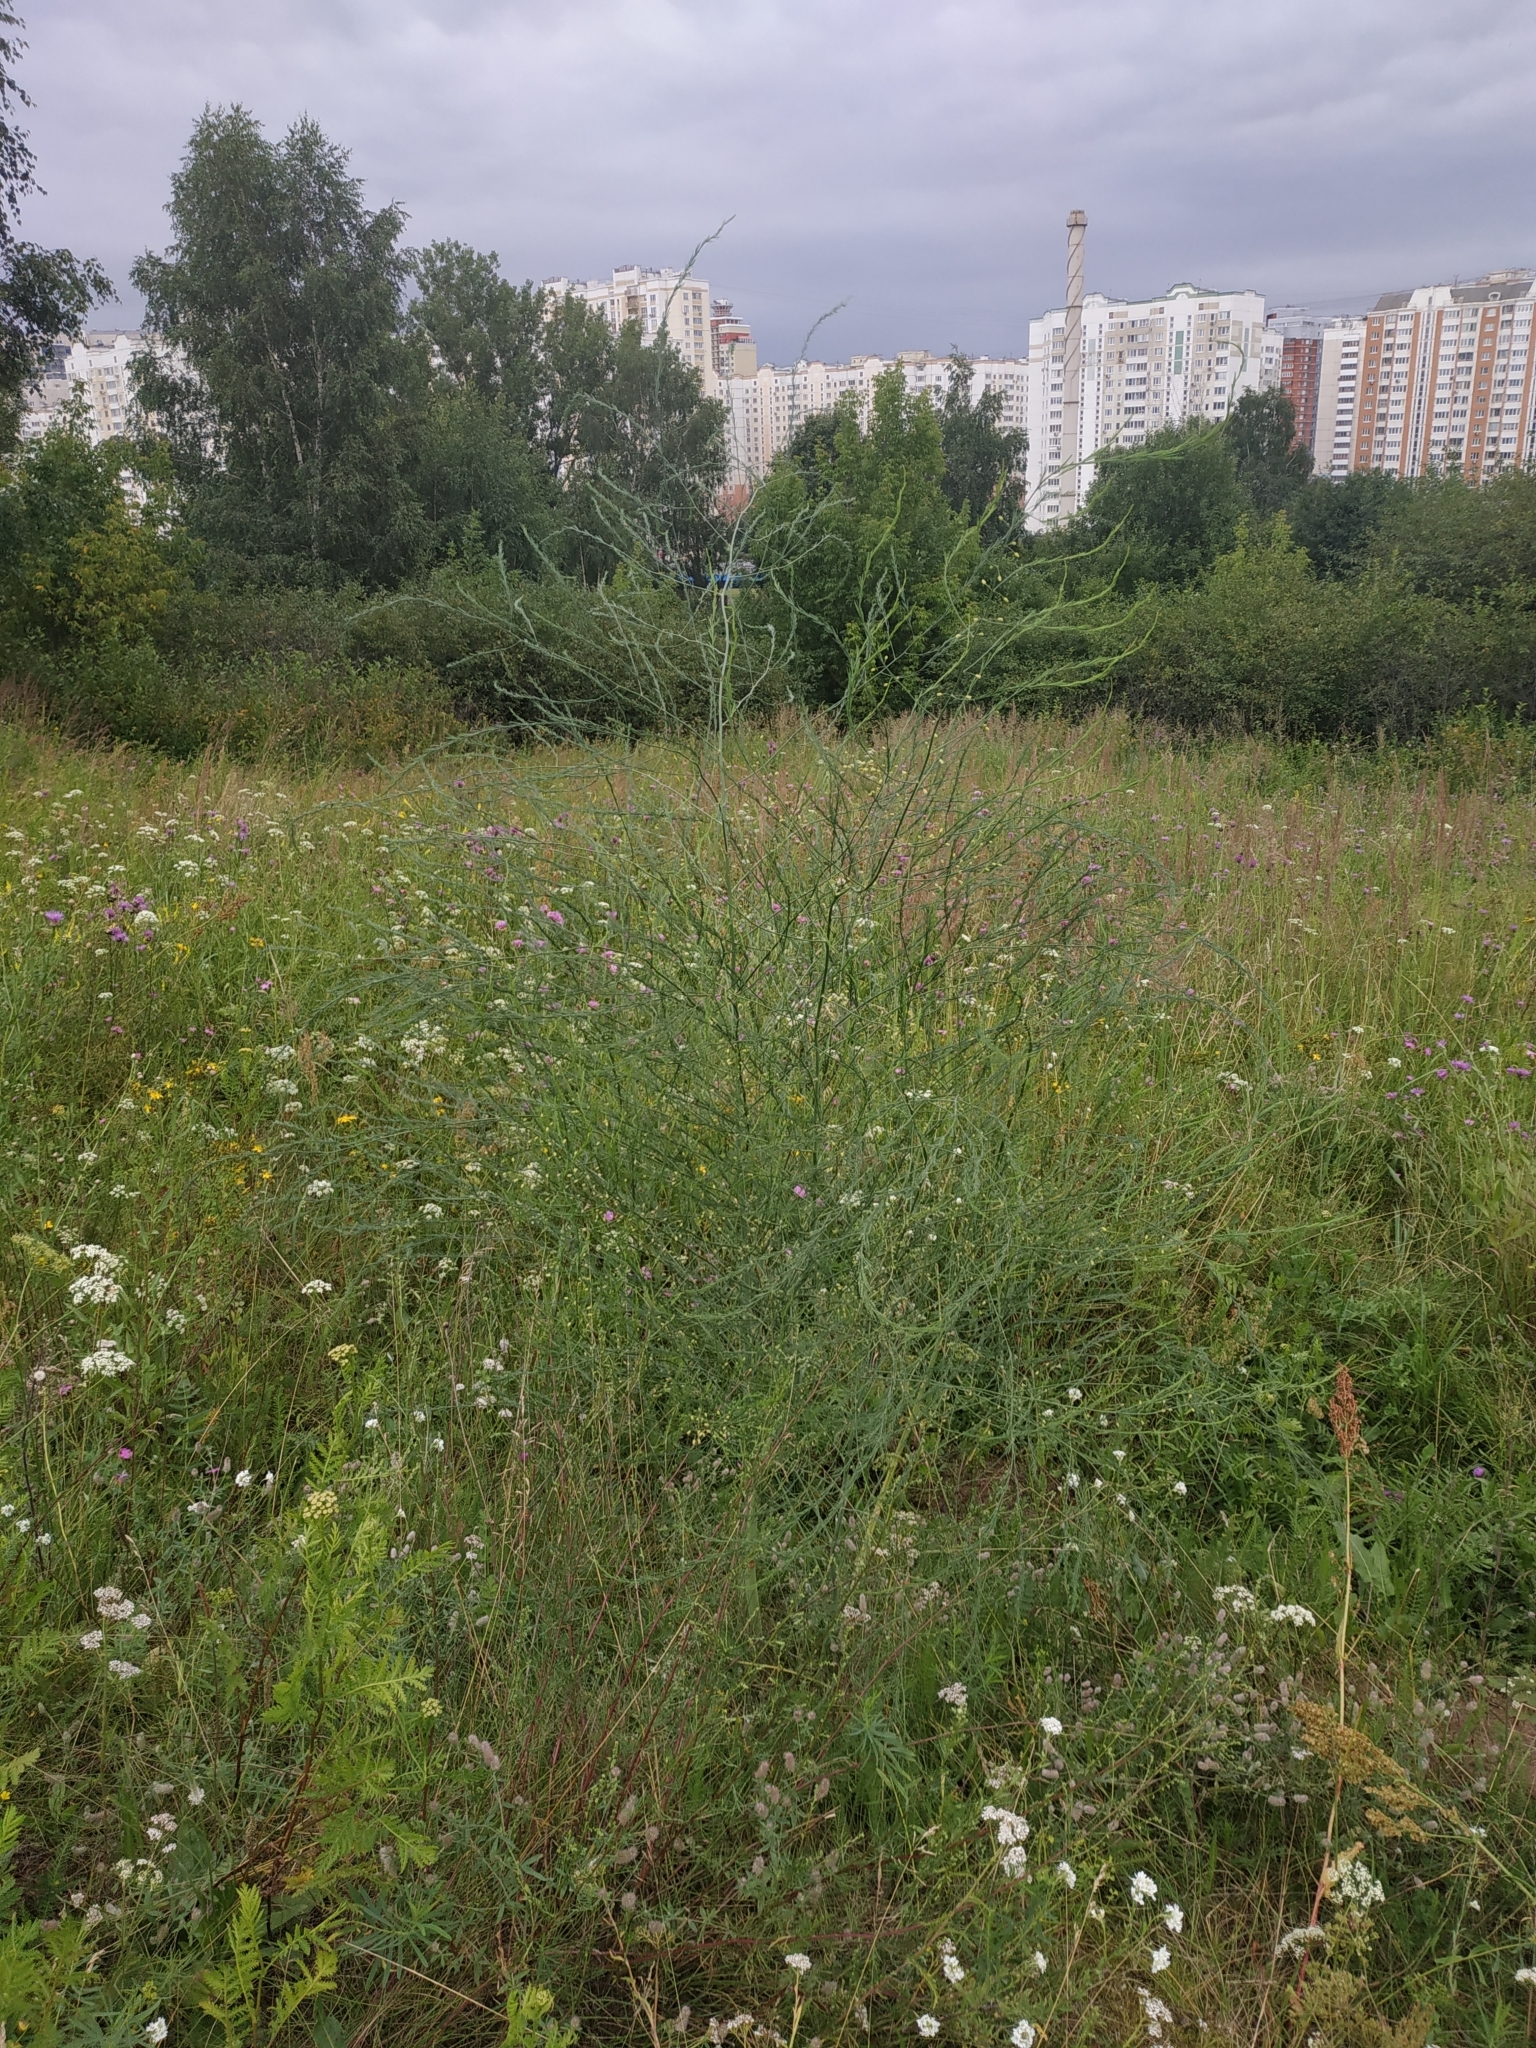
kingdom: Plantae
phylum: Tracheophyta
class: Liliopsida
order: Asparagales
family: Asparagaceae
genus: Asparagus
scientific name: Asparagus officinalis
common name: Garden asparagus
